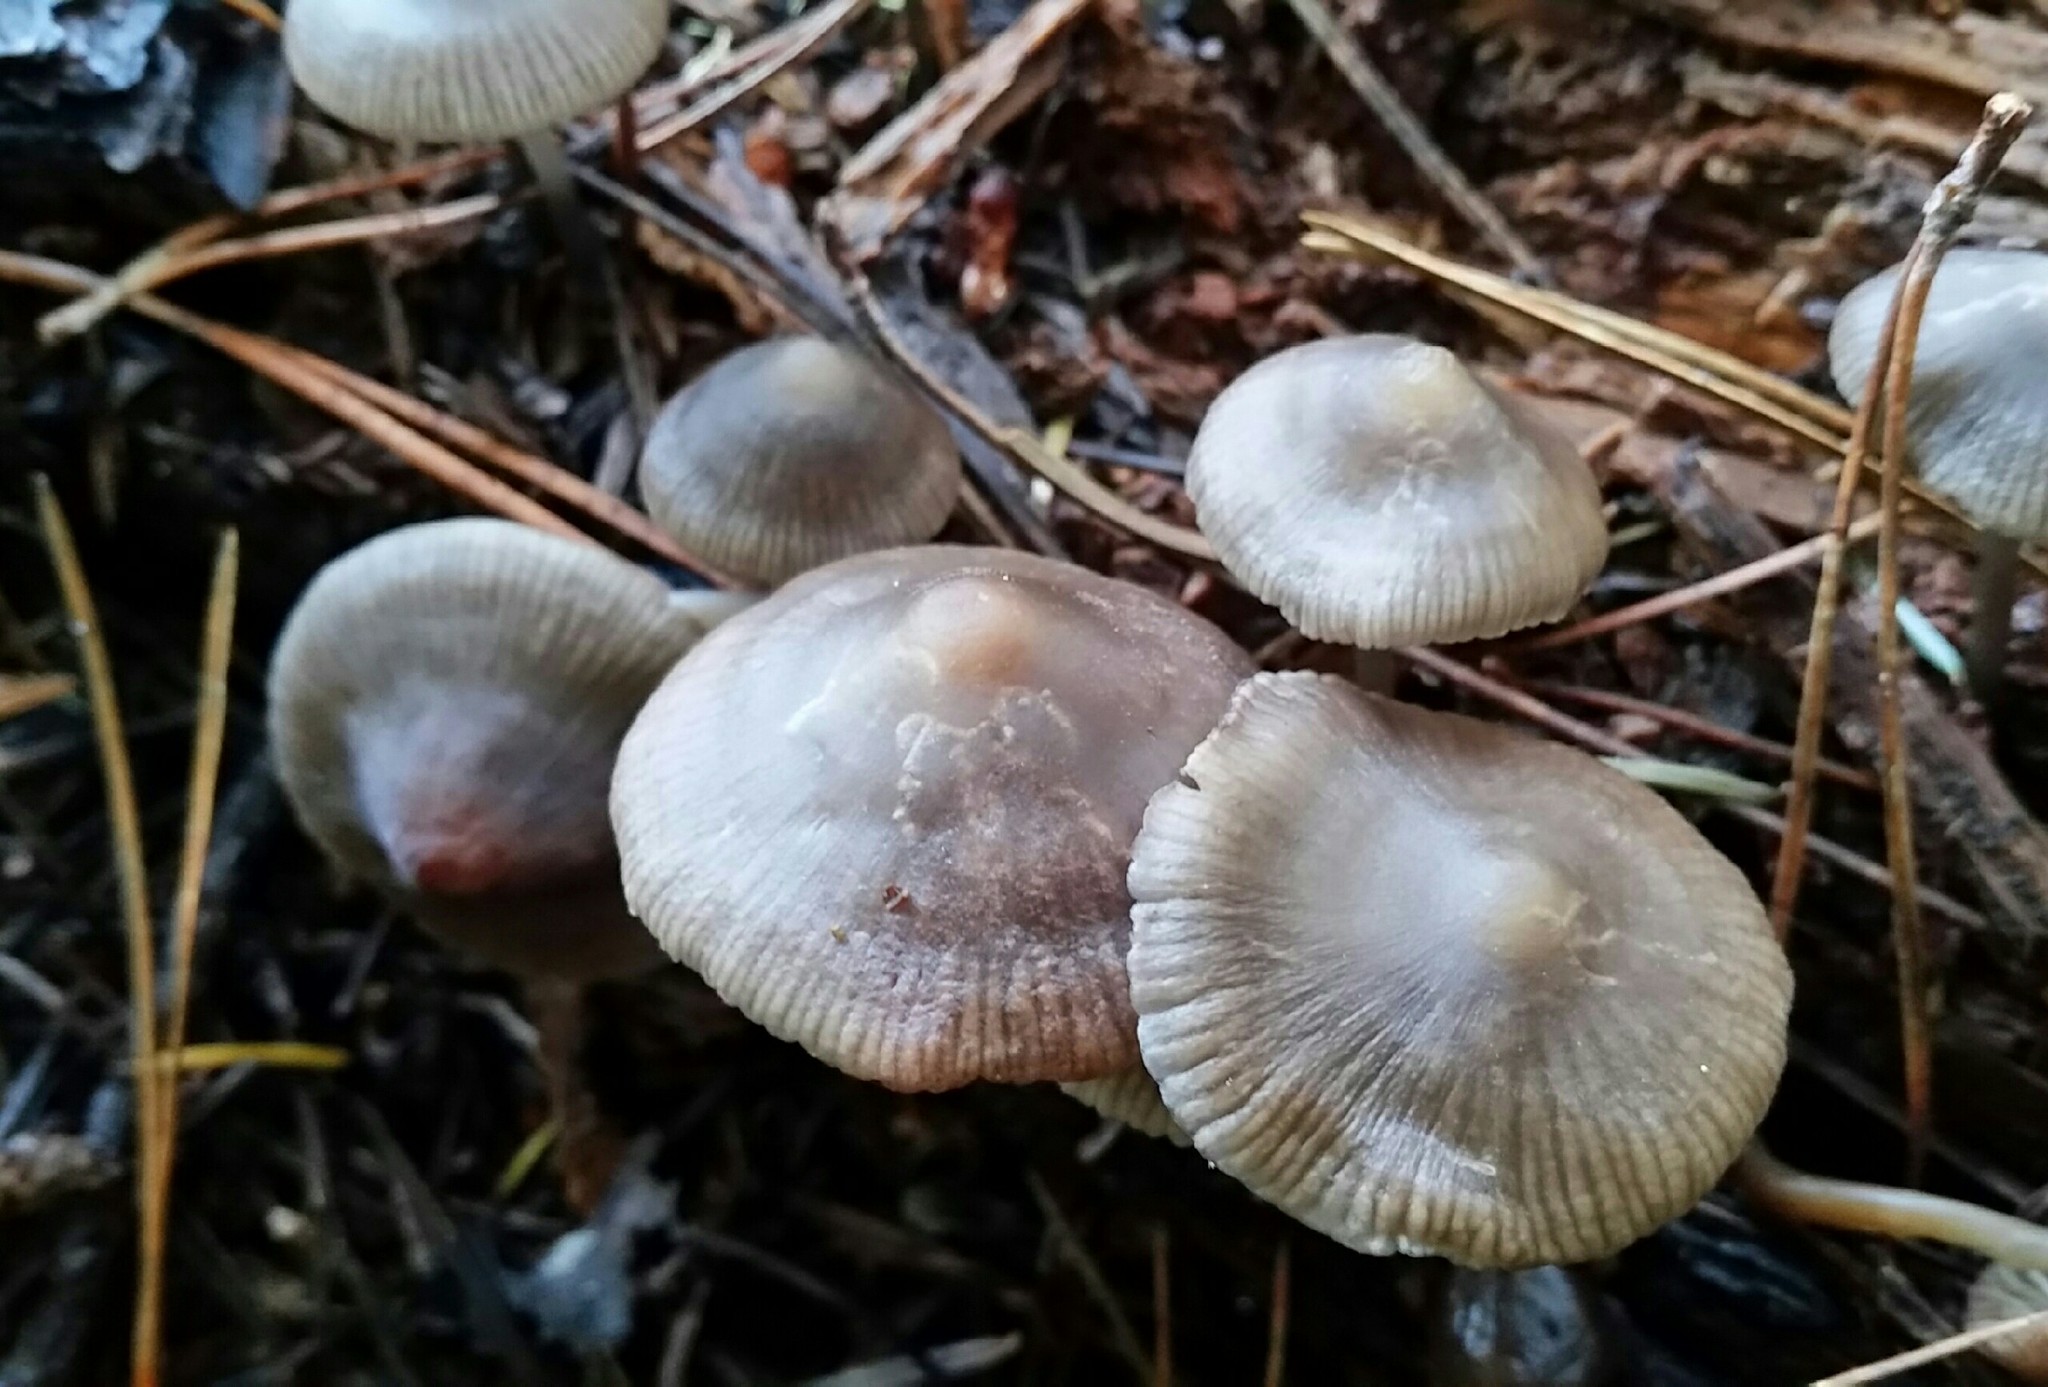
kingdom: Fungi
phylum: Basidiomycota
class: Agaricomycetes
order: Agaricales
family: Mycenaceae
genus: Mycena
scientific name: Mycena maculata
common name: Stained bonnet
